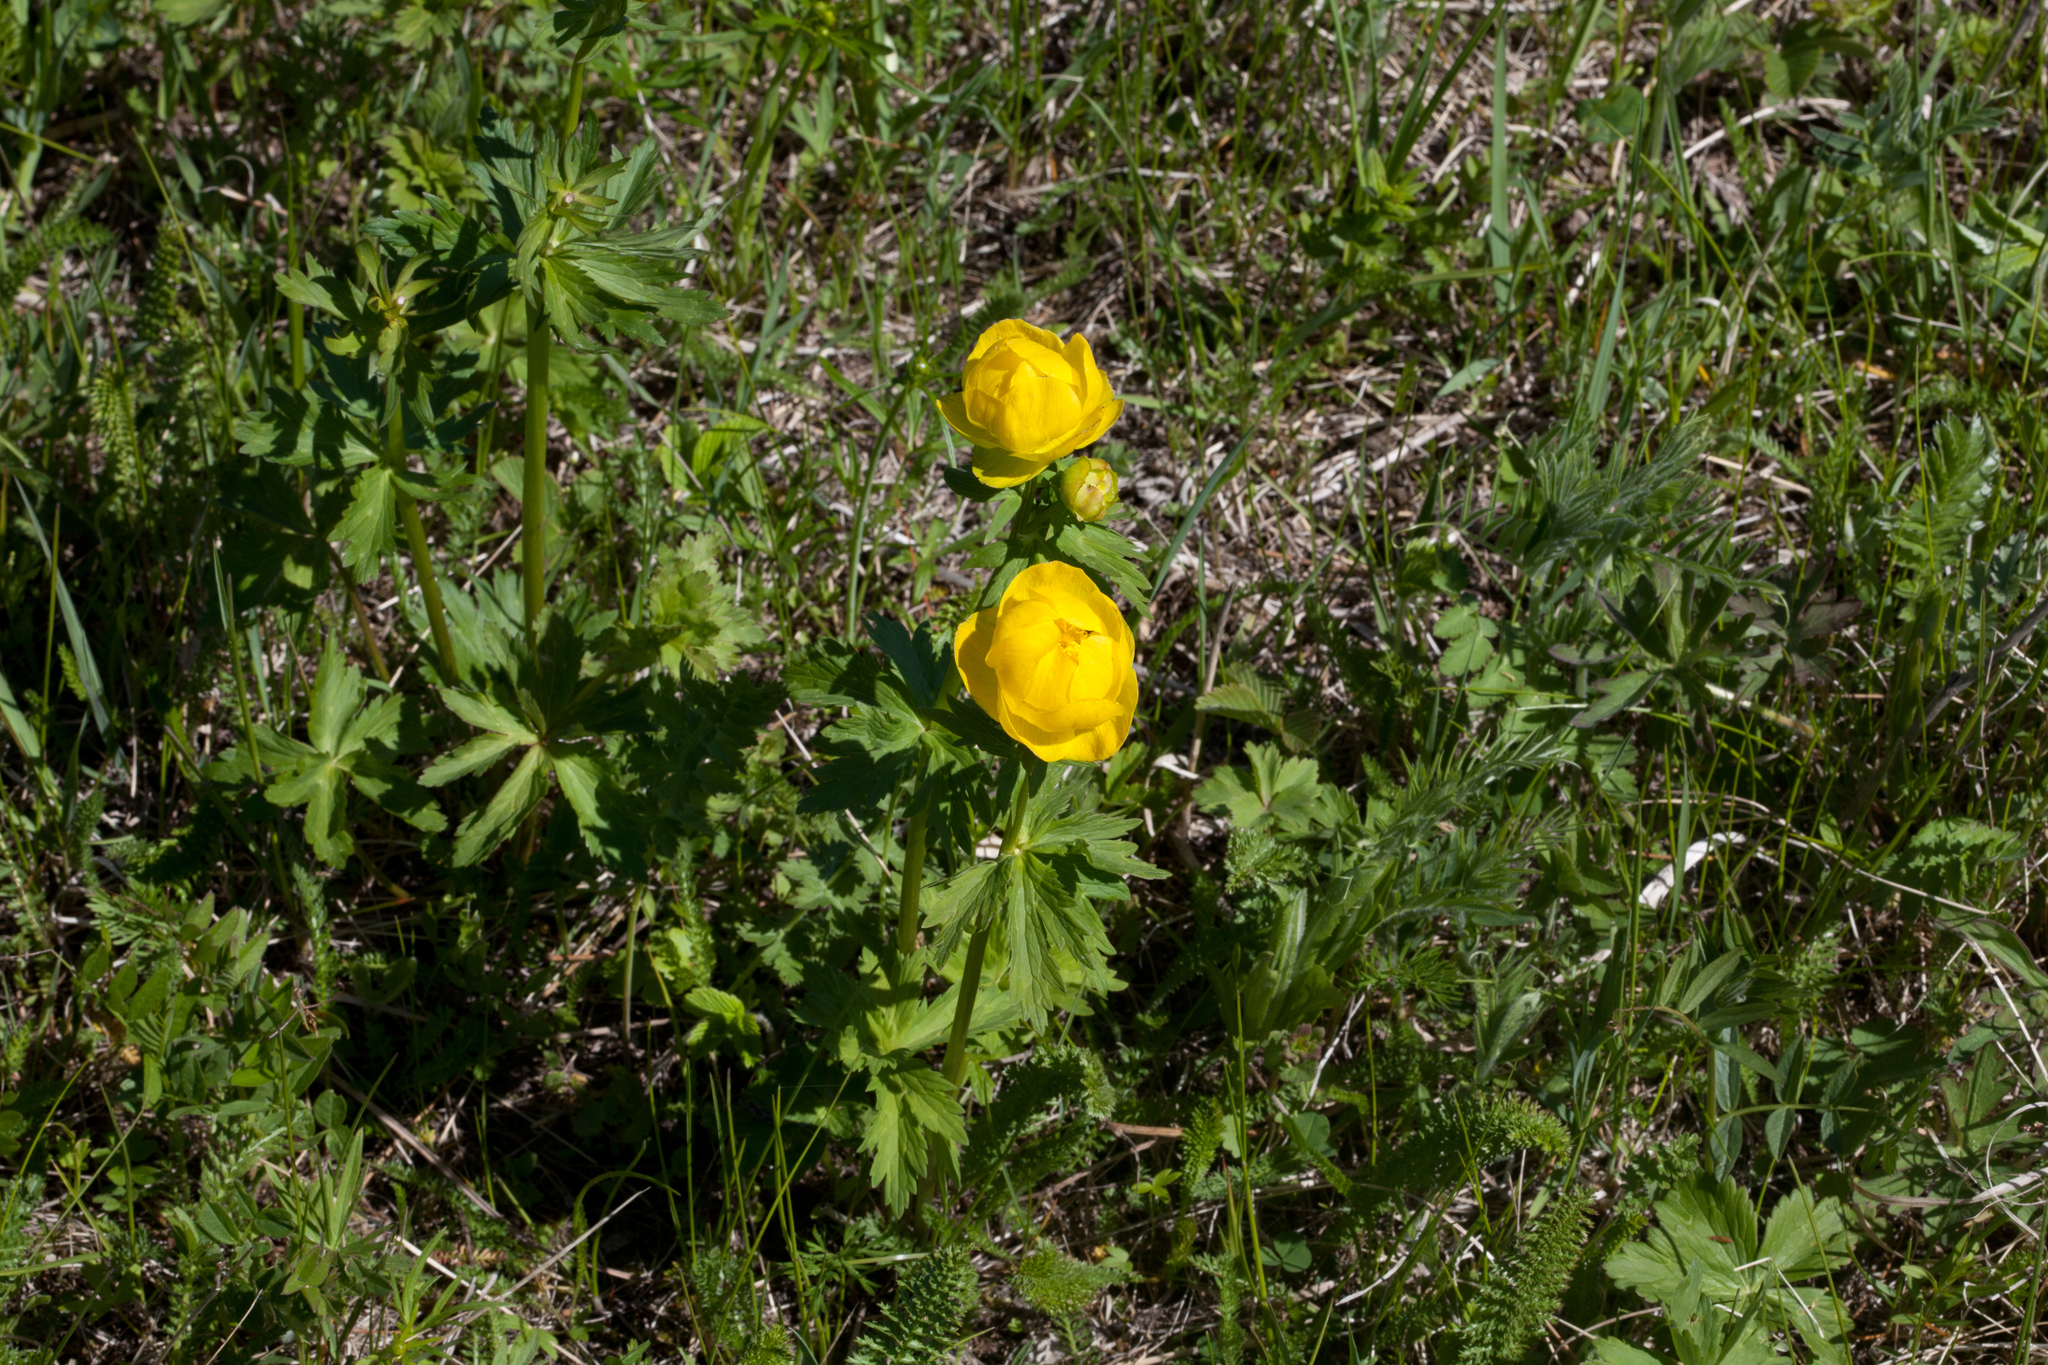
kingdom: Plantae
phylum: Tracheophyta
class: Magnoliopsida
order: Ranunculales
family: Ranunculaceae
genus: Trollius
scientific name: Trollius europaeus
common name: European globeflower
